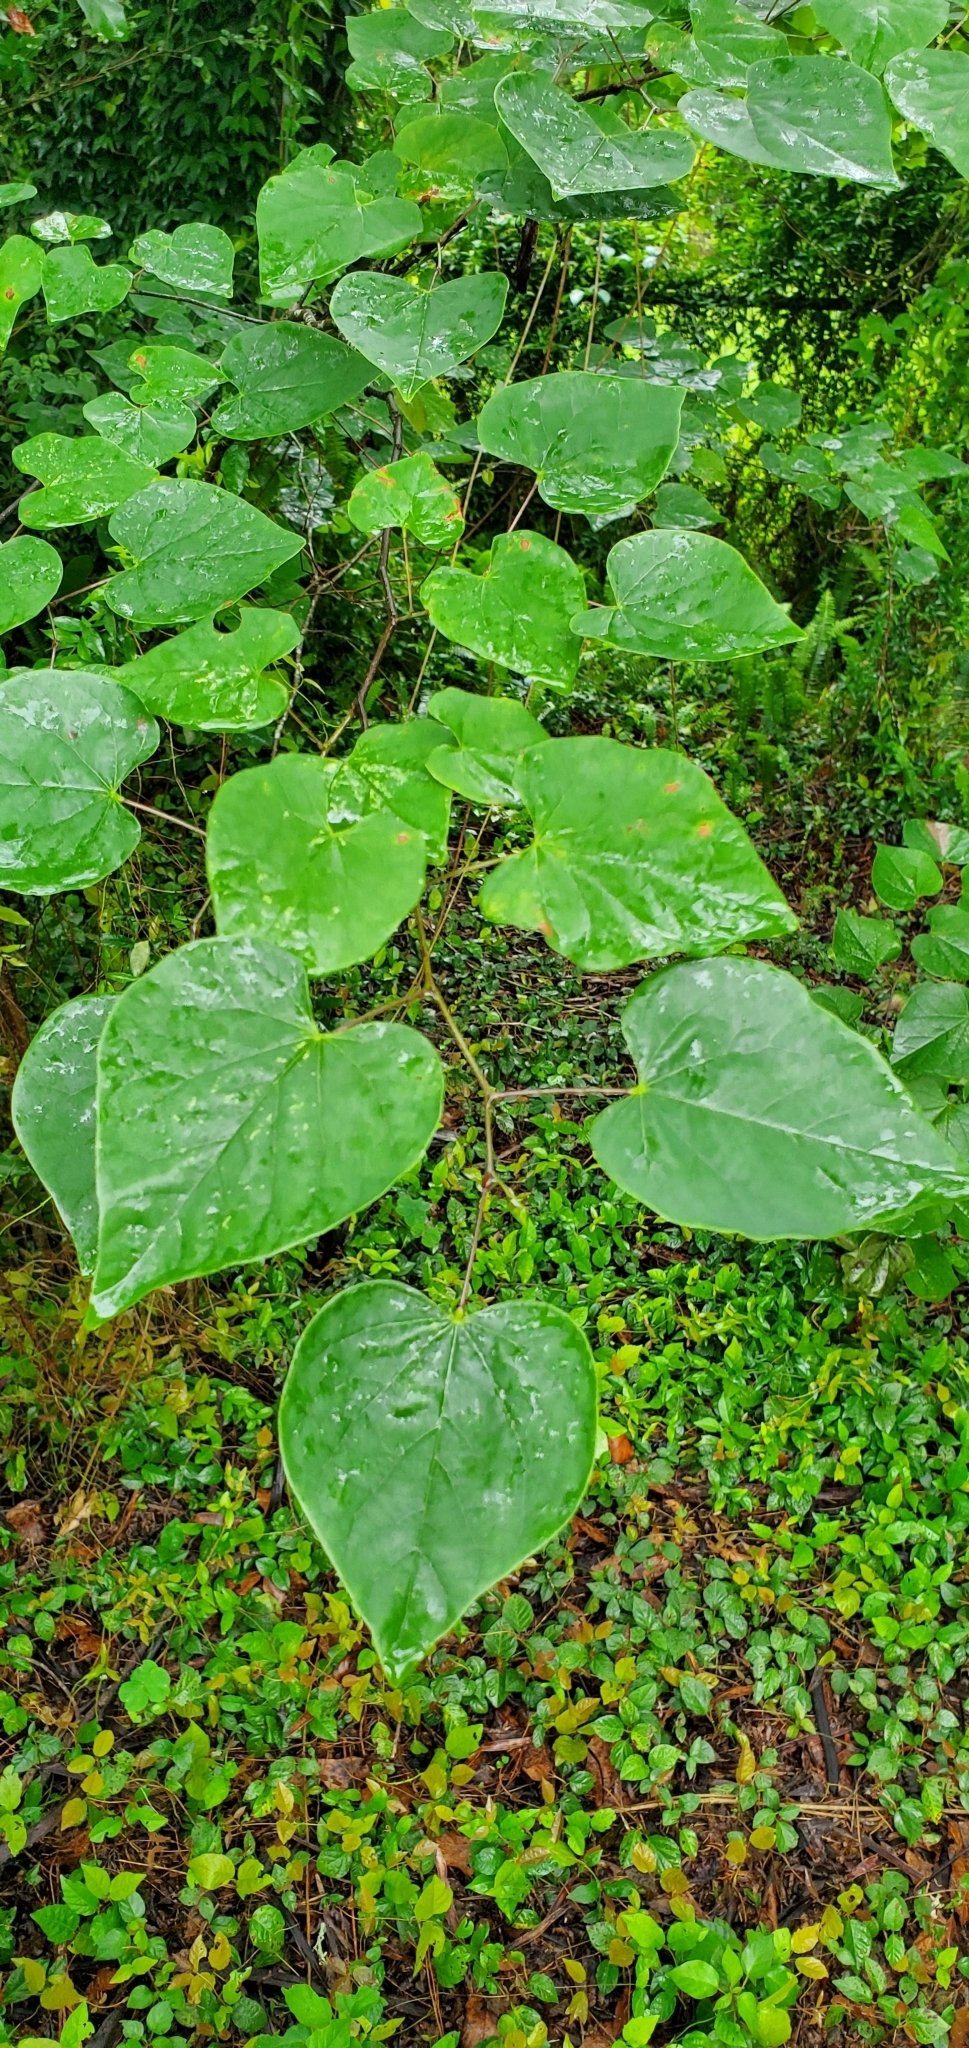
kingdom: Plantae
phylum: Tracheophyta
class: Magnoliopsida
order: Fabales
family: Fabaceae
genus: Cercis
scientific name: Cercis canadensis
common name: Eastern redbud
